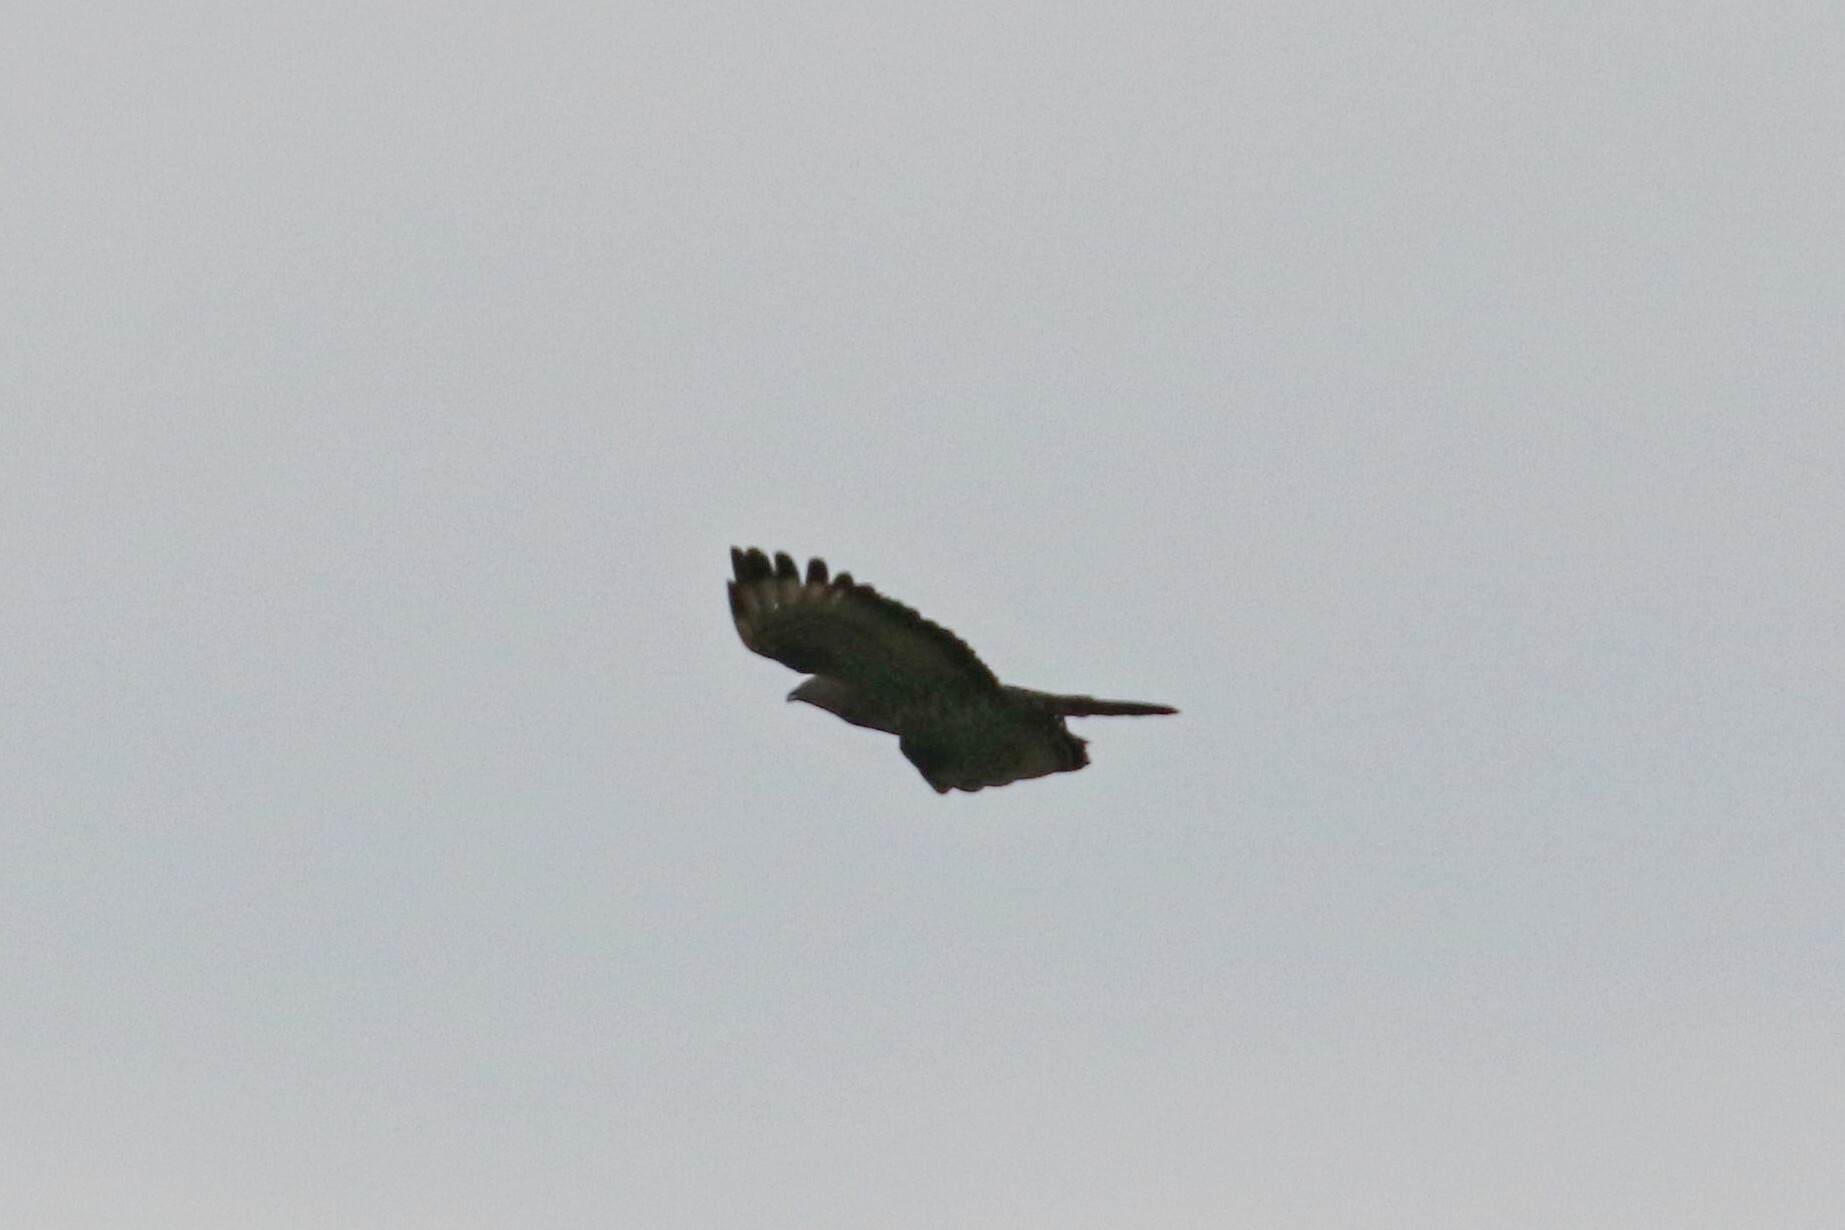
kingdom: Animalia
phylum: Chordata
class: Aves
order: Accipitriformes
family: Accipitridae
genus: Pernis
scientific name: Pernis apivorus
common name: European honey buzzard
